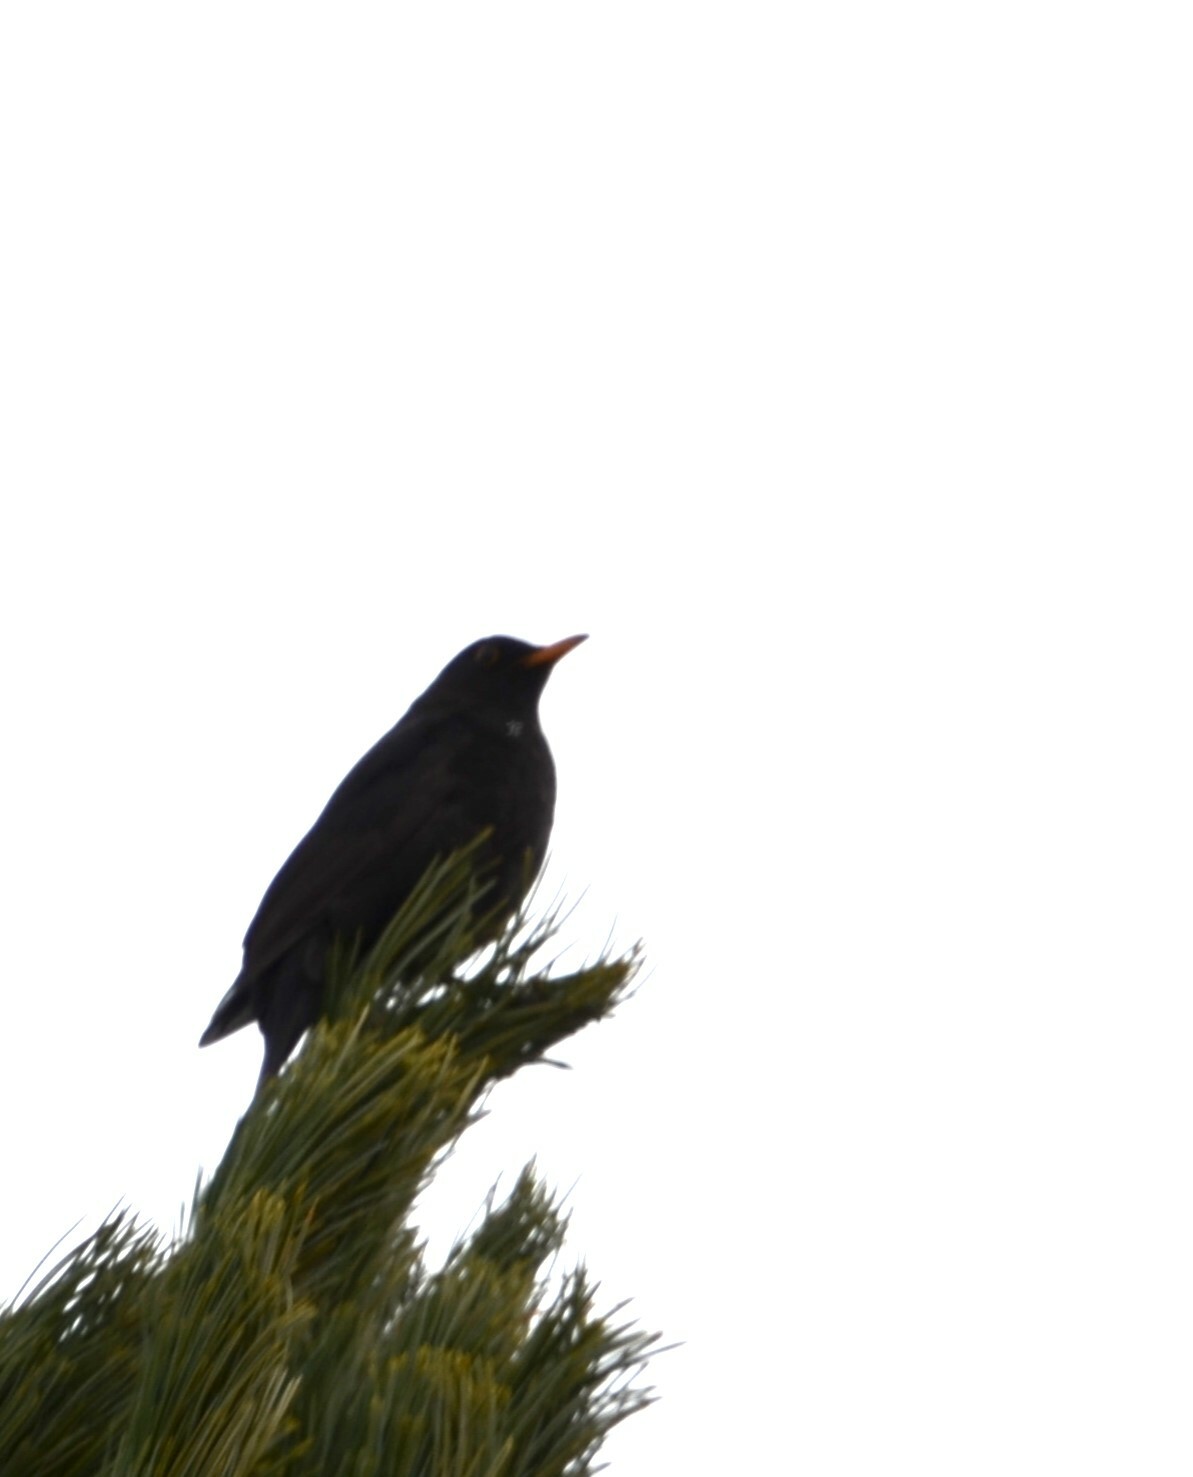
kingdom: Animalia
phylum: Chordata
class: Aves
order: Passeriformes
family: Turdidae
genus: Turdus
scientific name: Turdus merula
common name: Common blackbird
